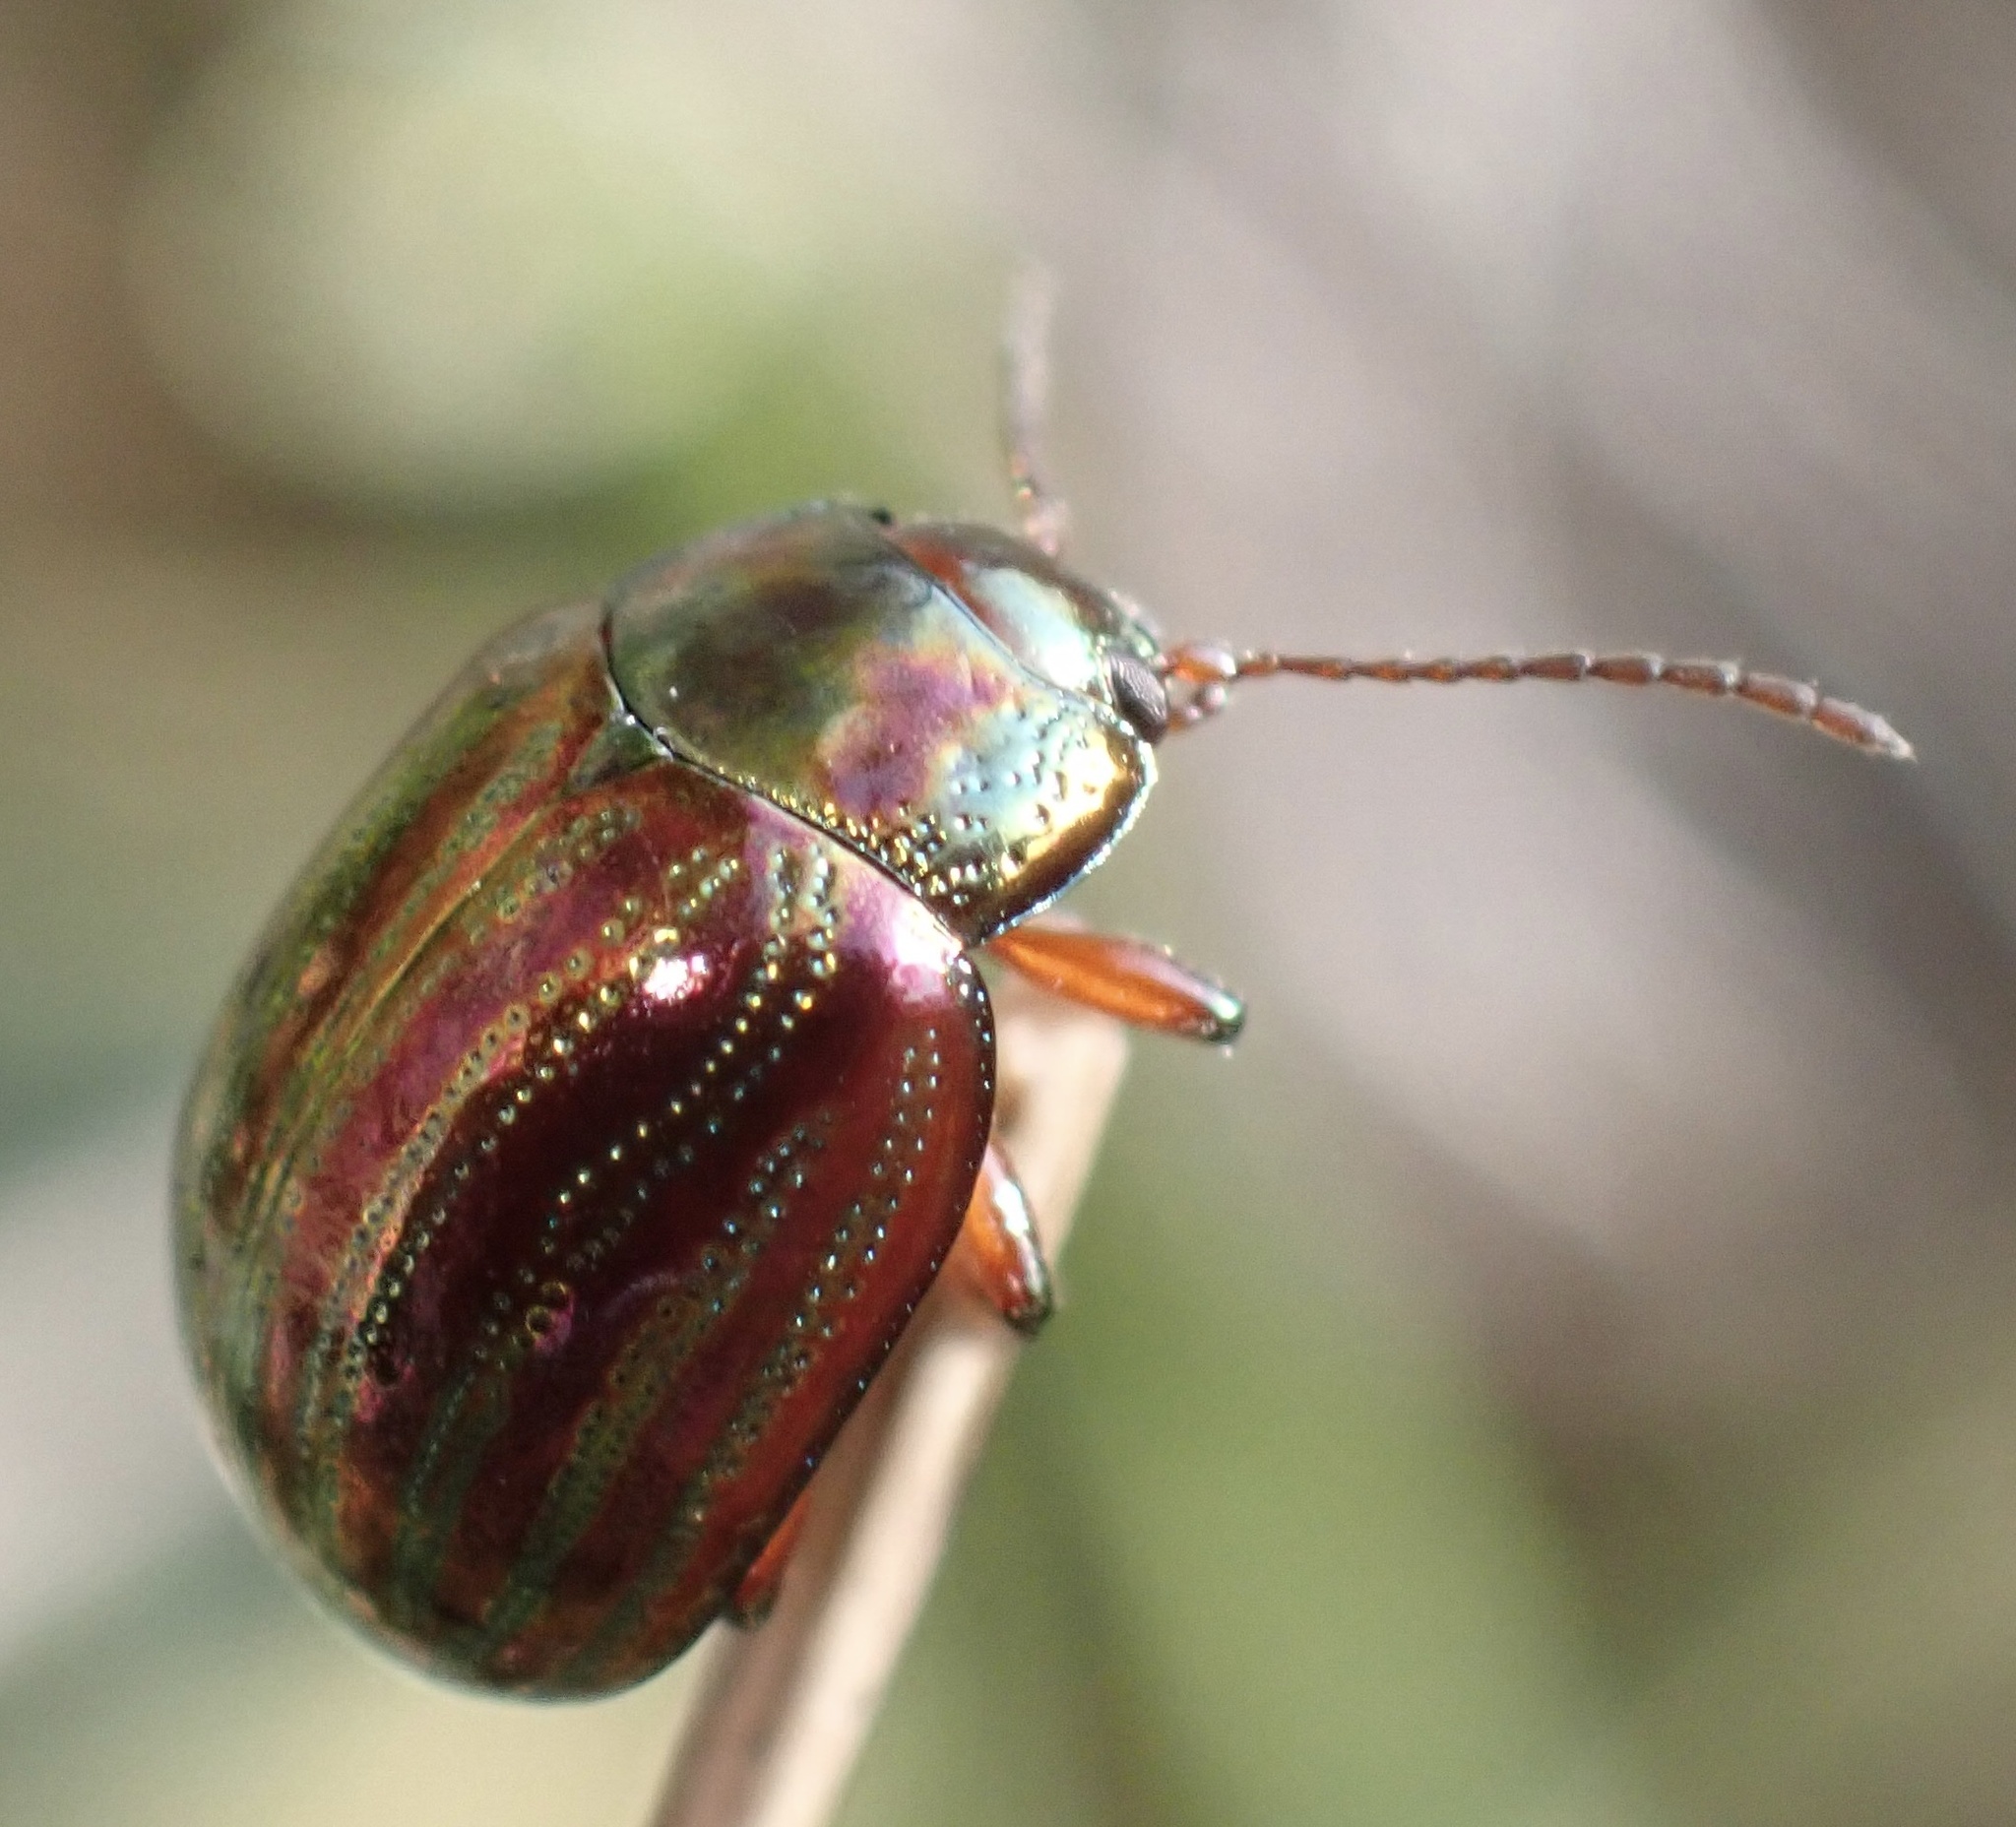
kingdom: Animalia
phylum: Arthropoda
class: Insecta
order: Coleoptera
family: Chrysomelidae
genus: Chrysolina
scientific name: Chrysolina americana
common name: Rosemary beetle
